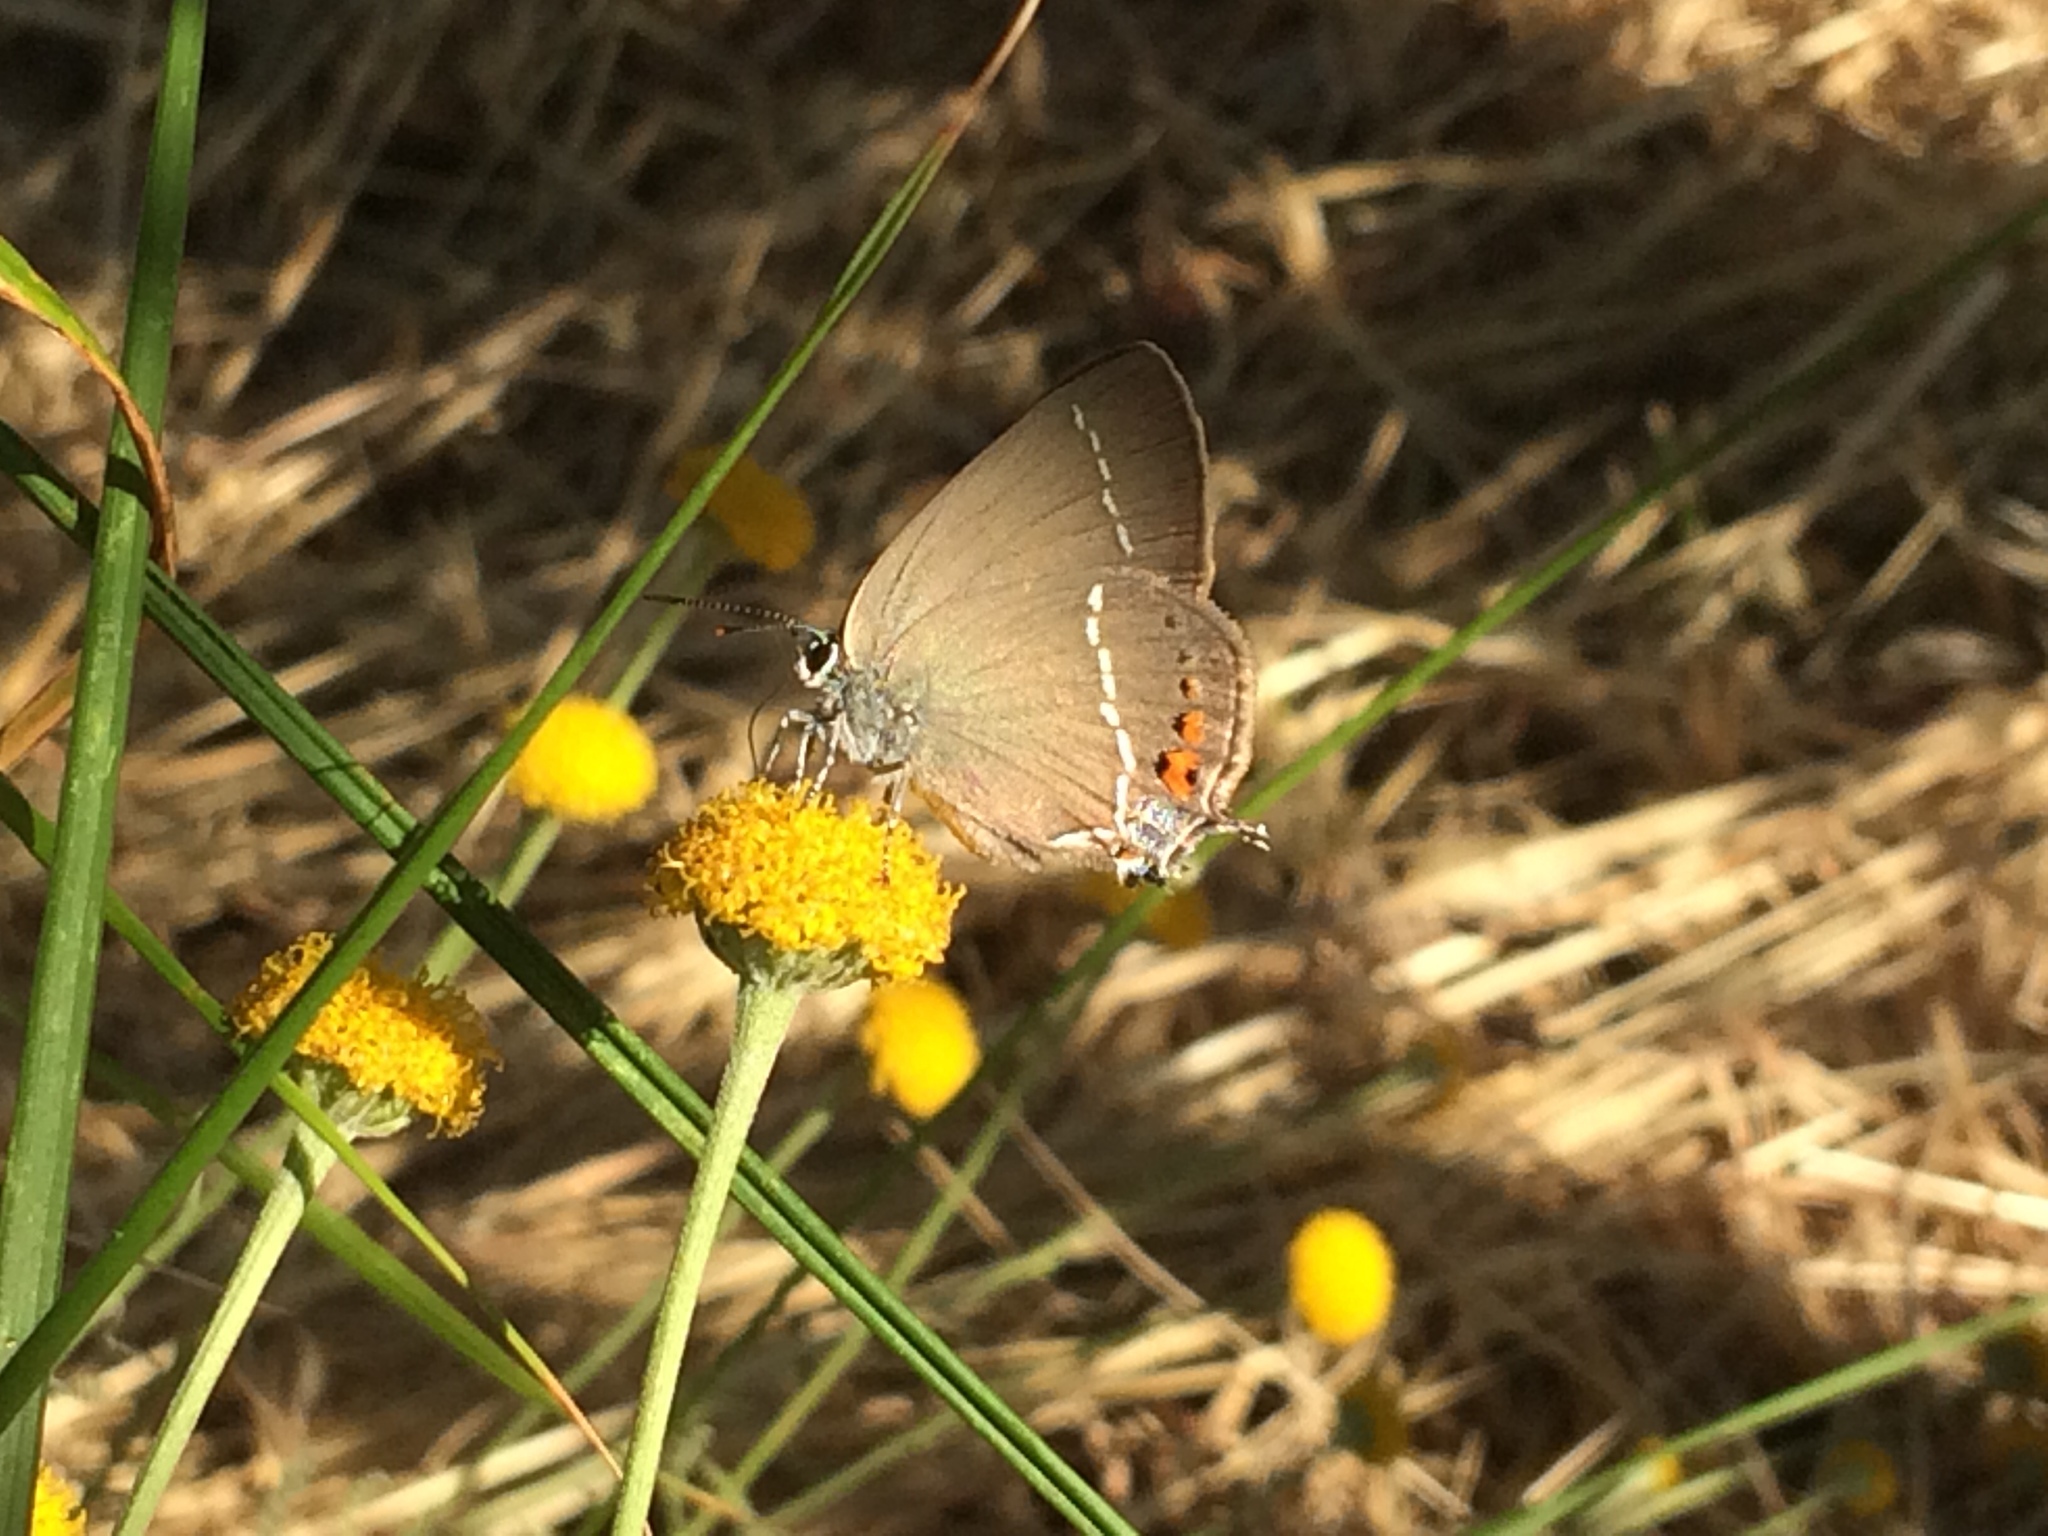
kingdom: Animalia
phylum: Arthropoda
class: Insecta
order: Lepidoptera
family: Lycaenidae
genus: Tuttiola
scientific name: Tuttiola spini
